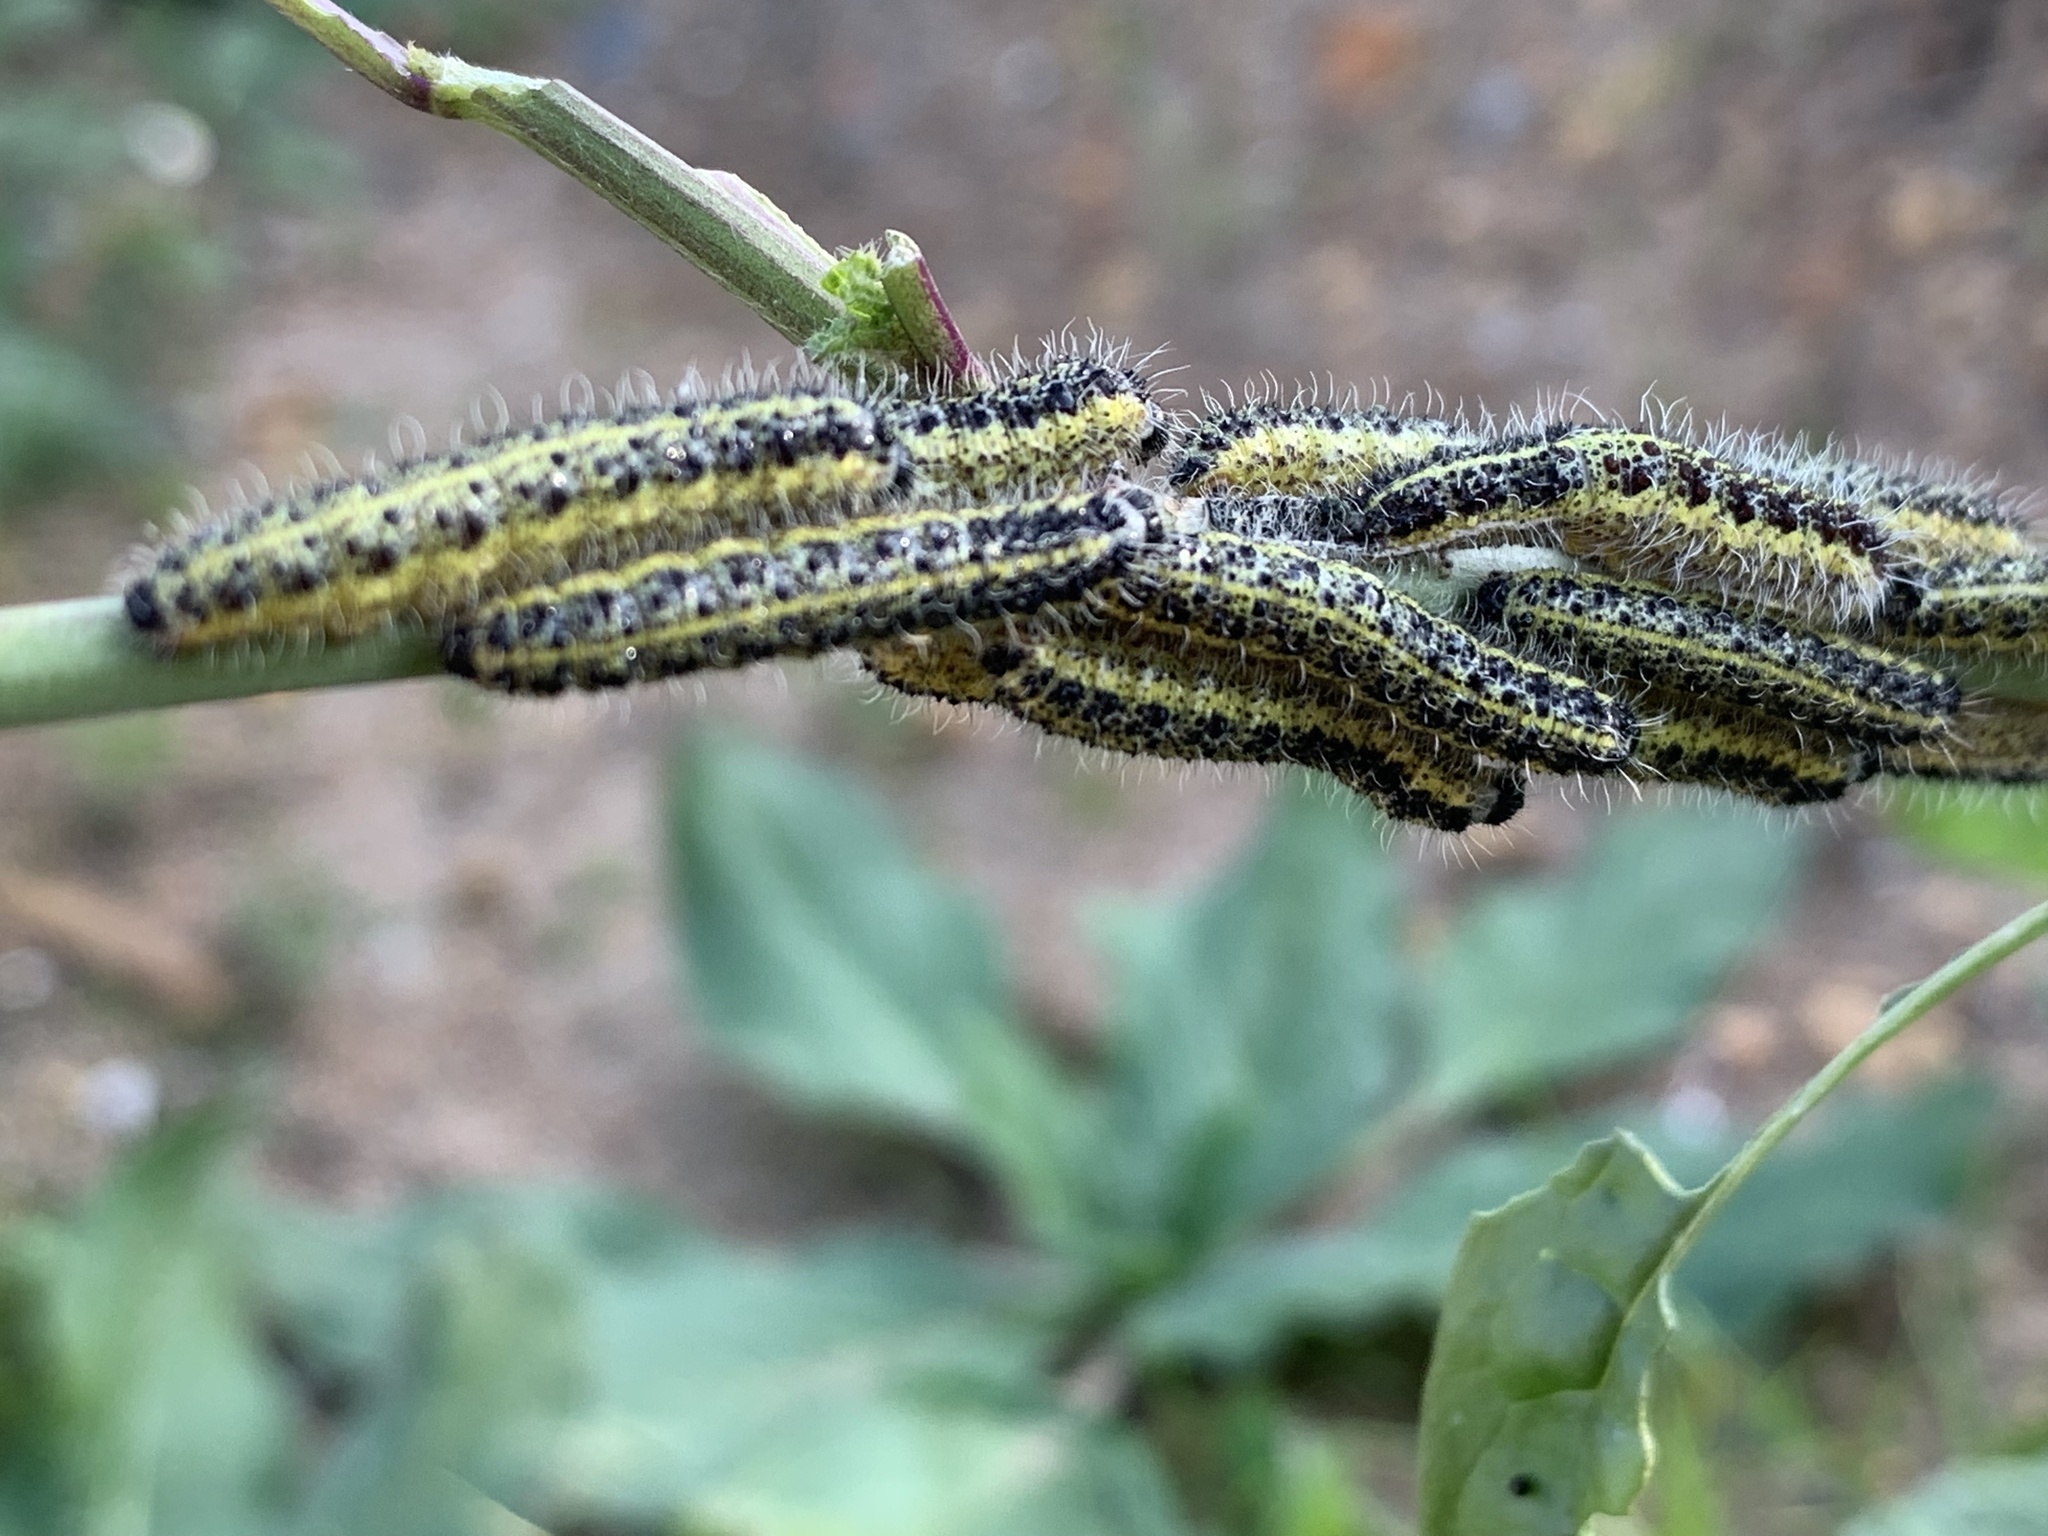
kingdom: Animalia
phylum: Arthropoda
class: Insecta
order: Lepidoptera
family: Pieridae
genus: Pieris
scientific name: Pieris brassicae
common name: Large white
